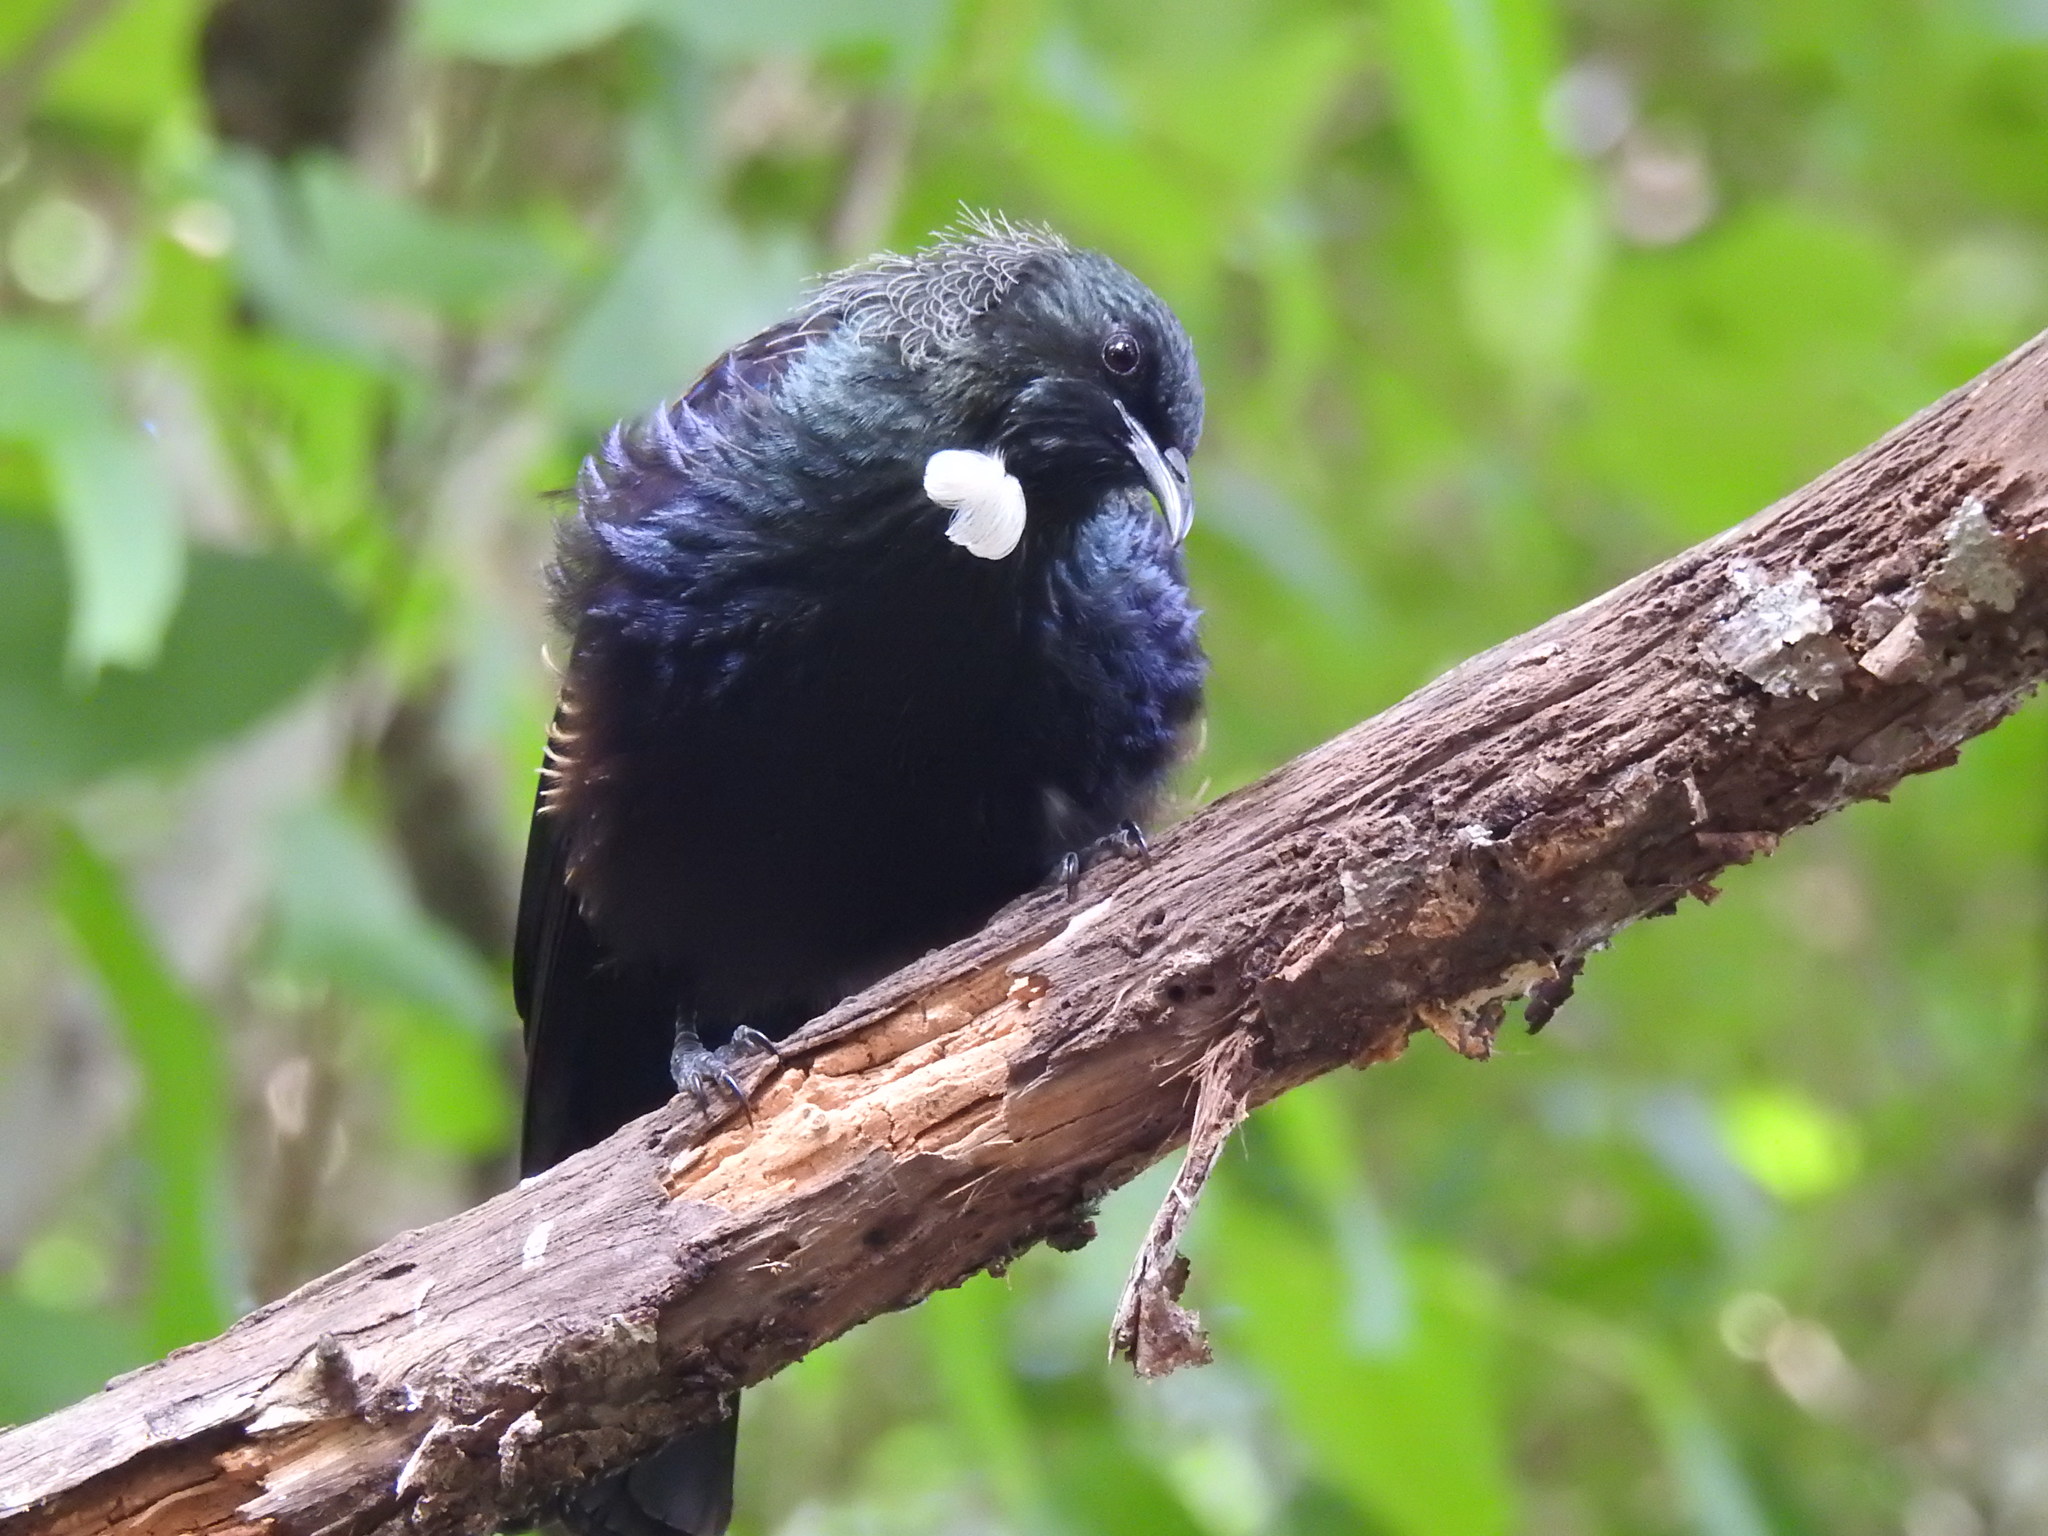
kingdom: Animalia
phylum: Chordata
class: Aves
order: Passeriformes
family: Meliphagidae
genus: Prosthemadera
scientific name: Prosthemadera novaeseelandiae
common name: Tui
